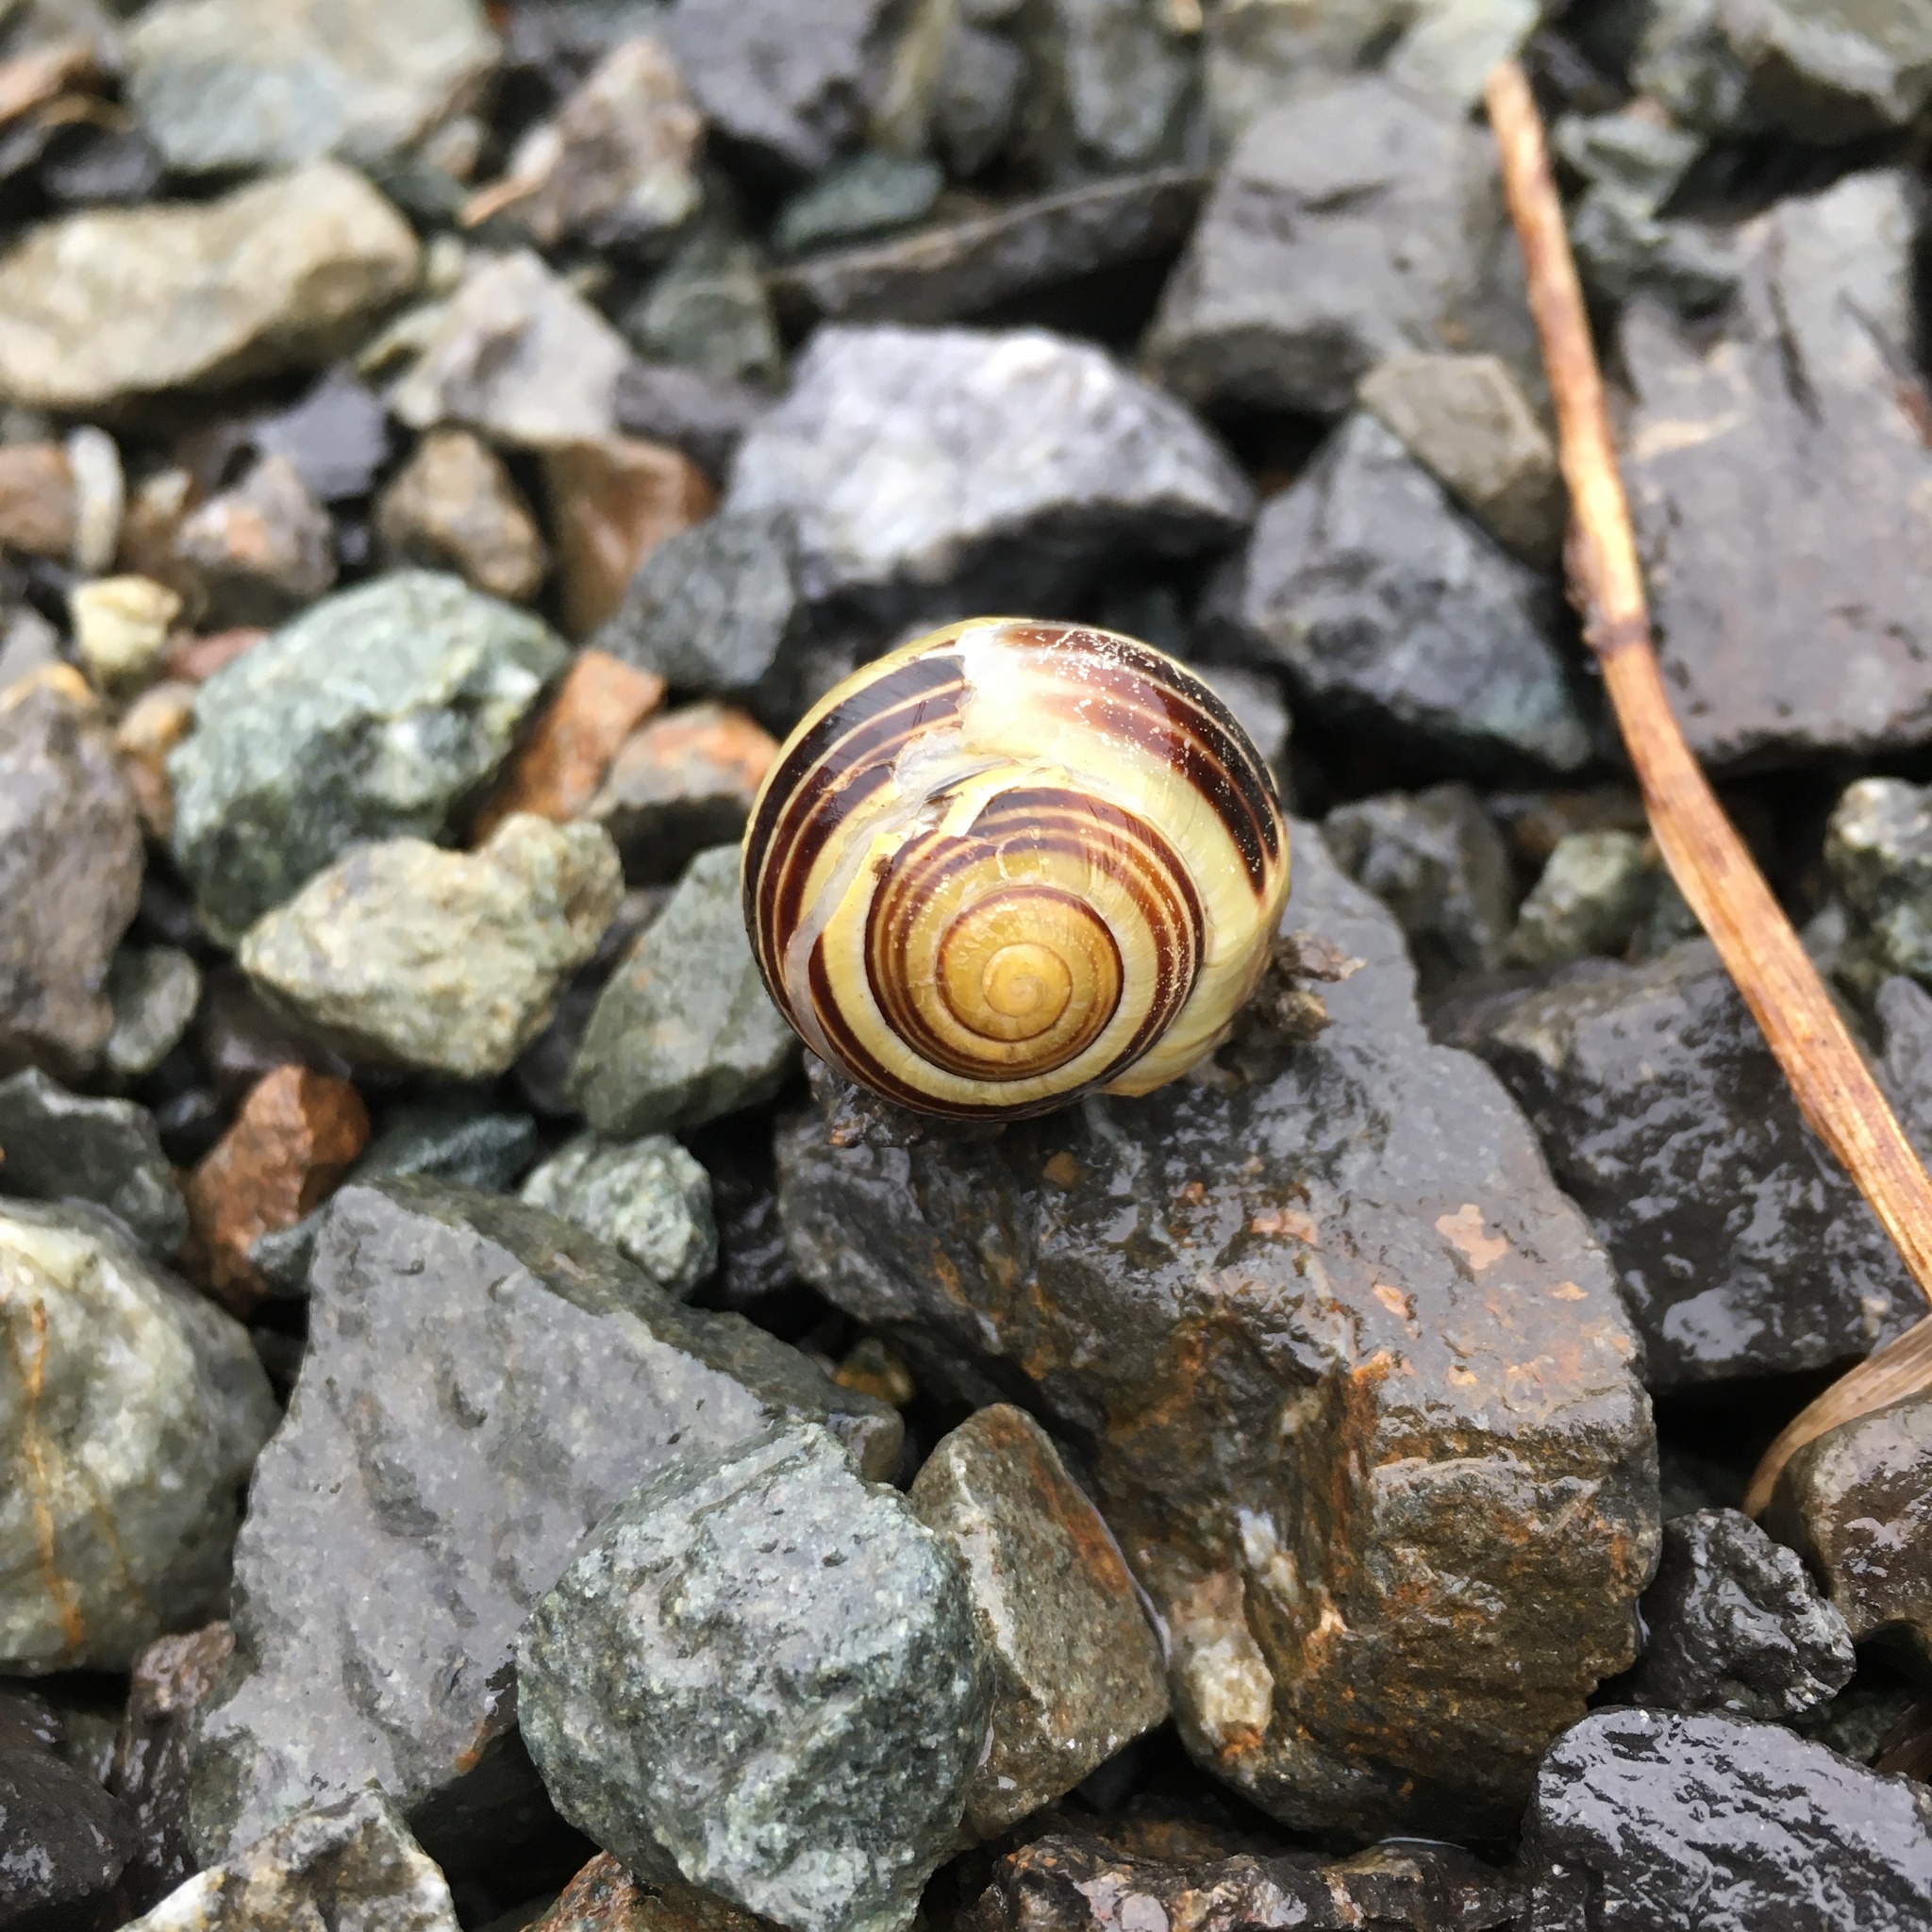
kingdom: Animalia
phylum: Mollusca
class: Gastropoda
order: Stylommatophora
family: Helicidae
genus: Cepaea
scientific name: Cepaea nemoralis
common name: Grovesnail
